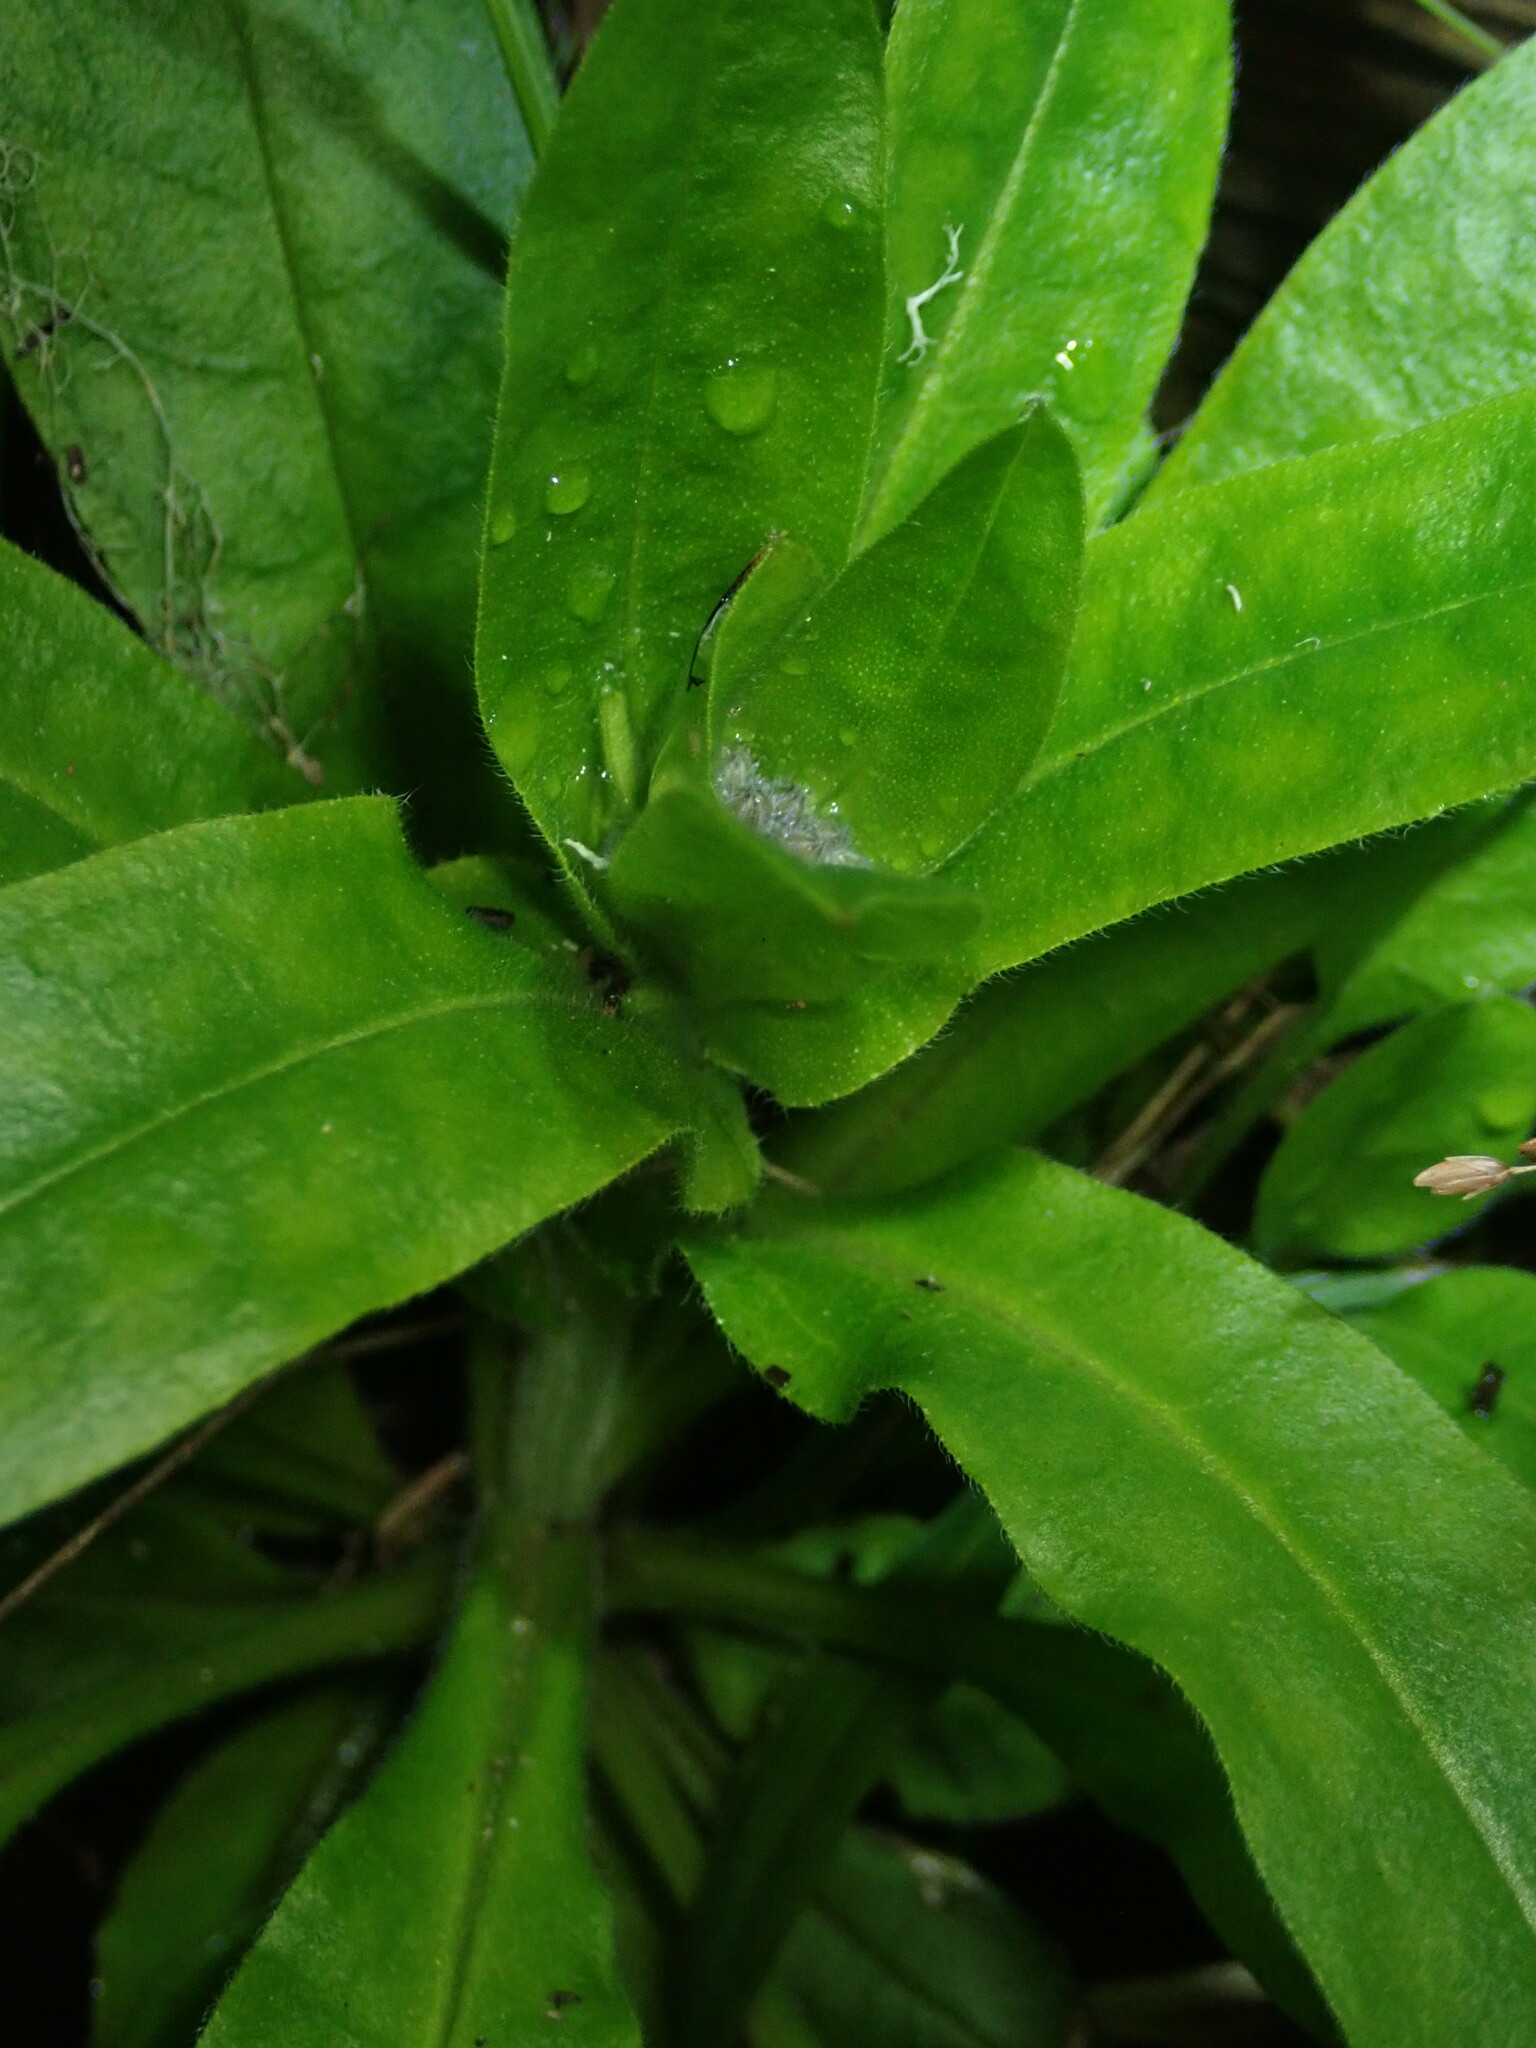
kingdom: Plantae
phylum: Tracheophyta
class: Magnoliopsida
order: Boraginales
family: Boraginaceae
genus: Myosotis
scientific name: Myosotis latifolia
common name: Broadleaf forget-me-not
